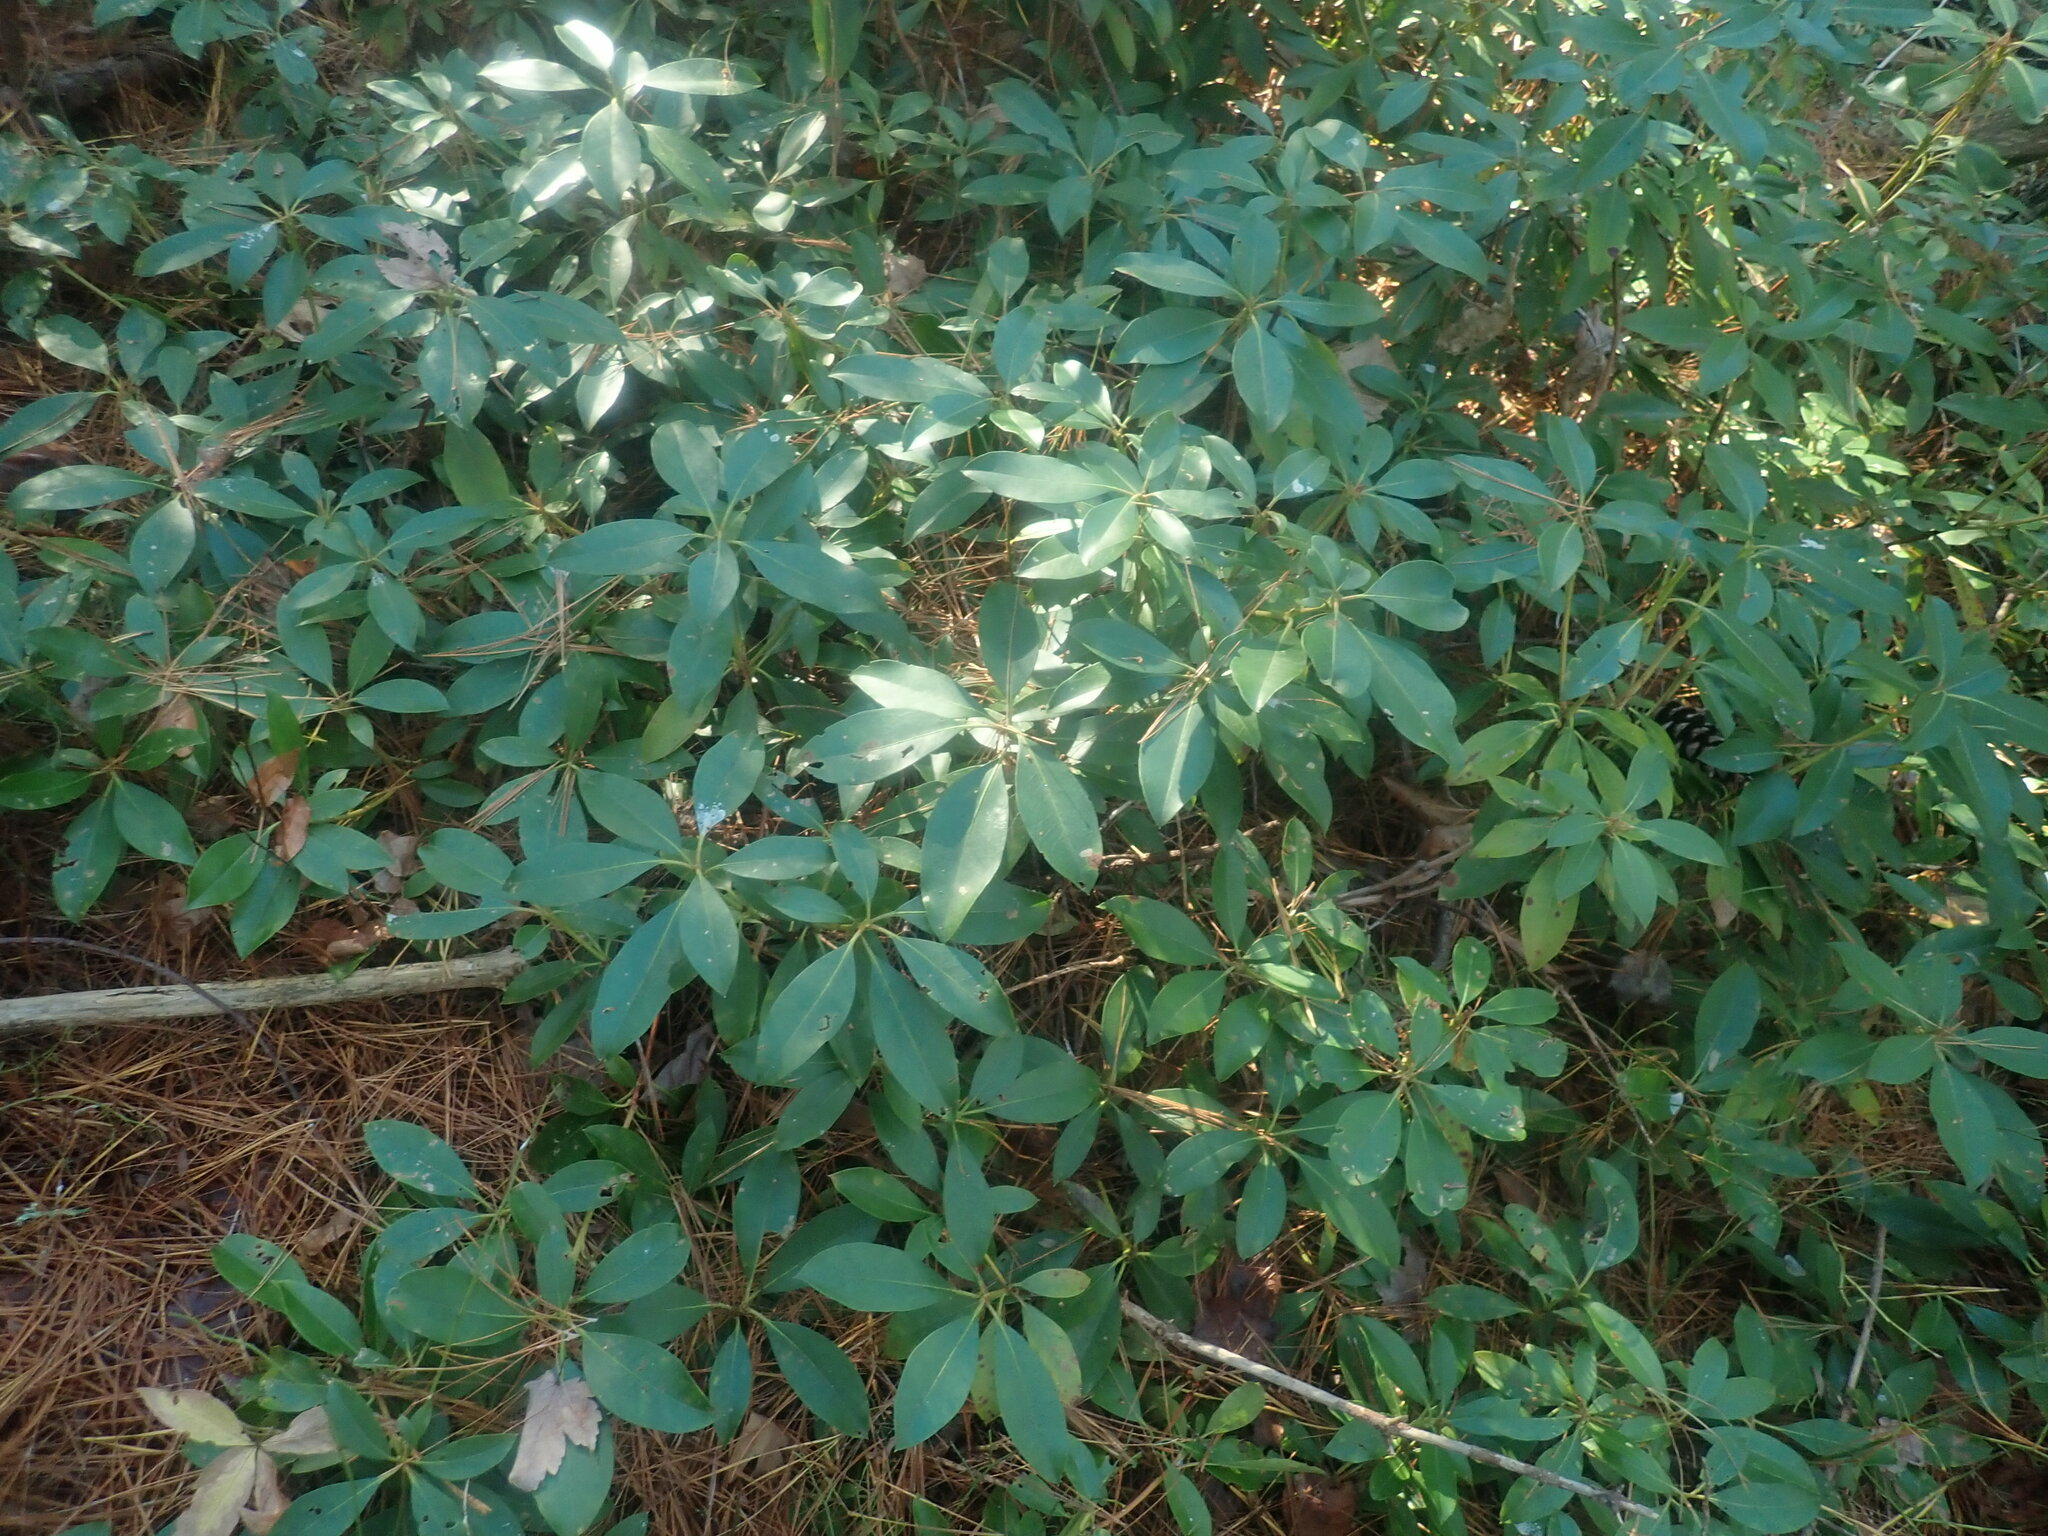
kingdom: Plantae
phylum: Tracheophyta
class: Magnoliopsida
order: Ericales
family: Ericaceae
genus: Kalmia
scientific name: Kalmia latifolia
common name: Mountain-laurel
